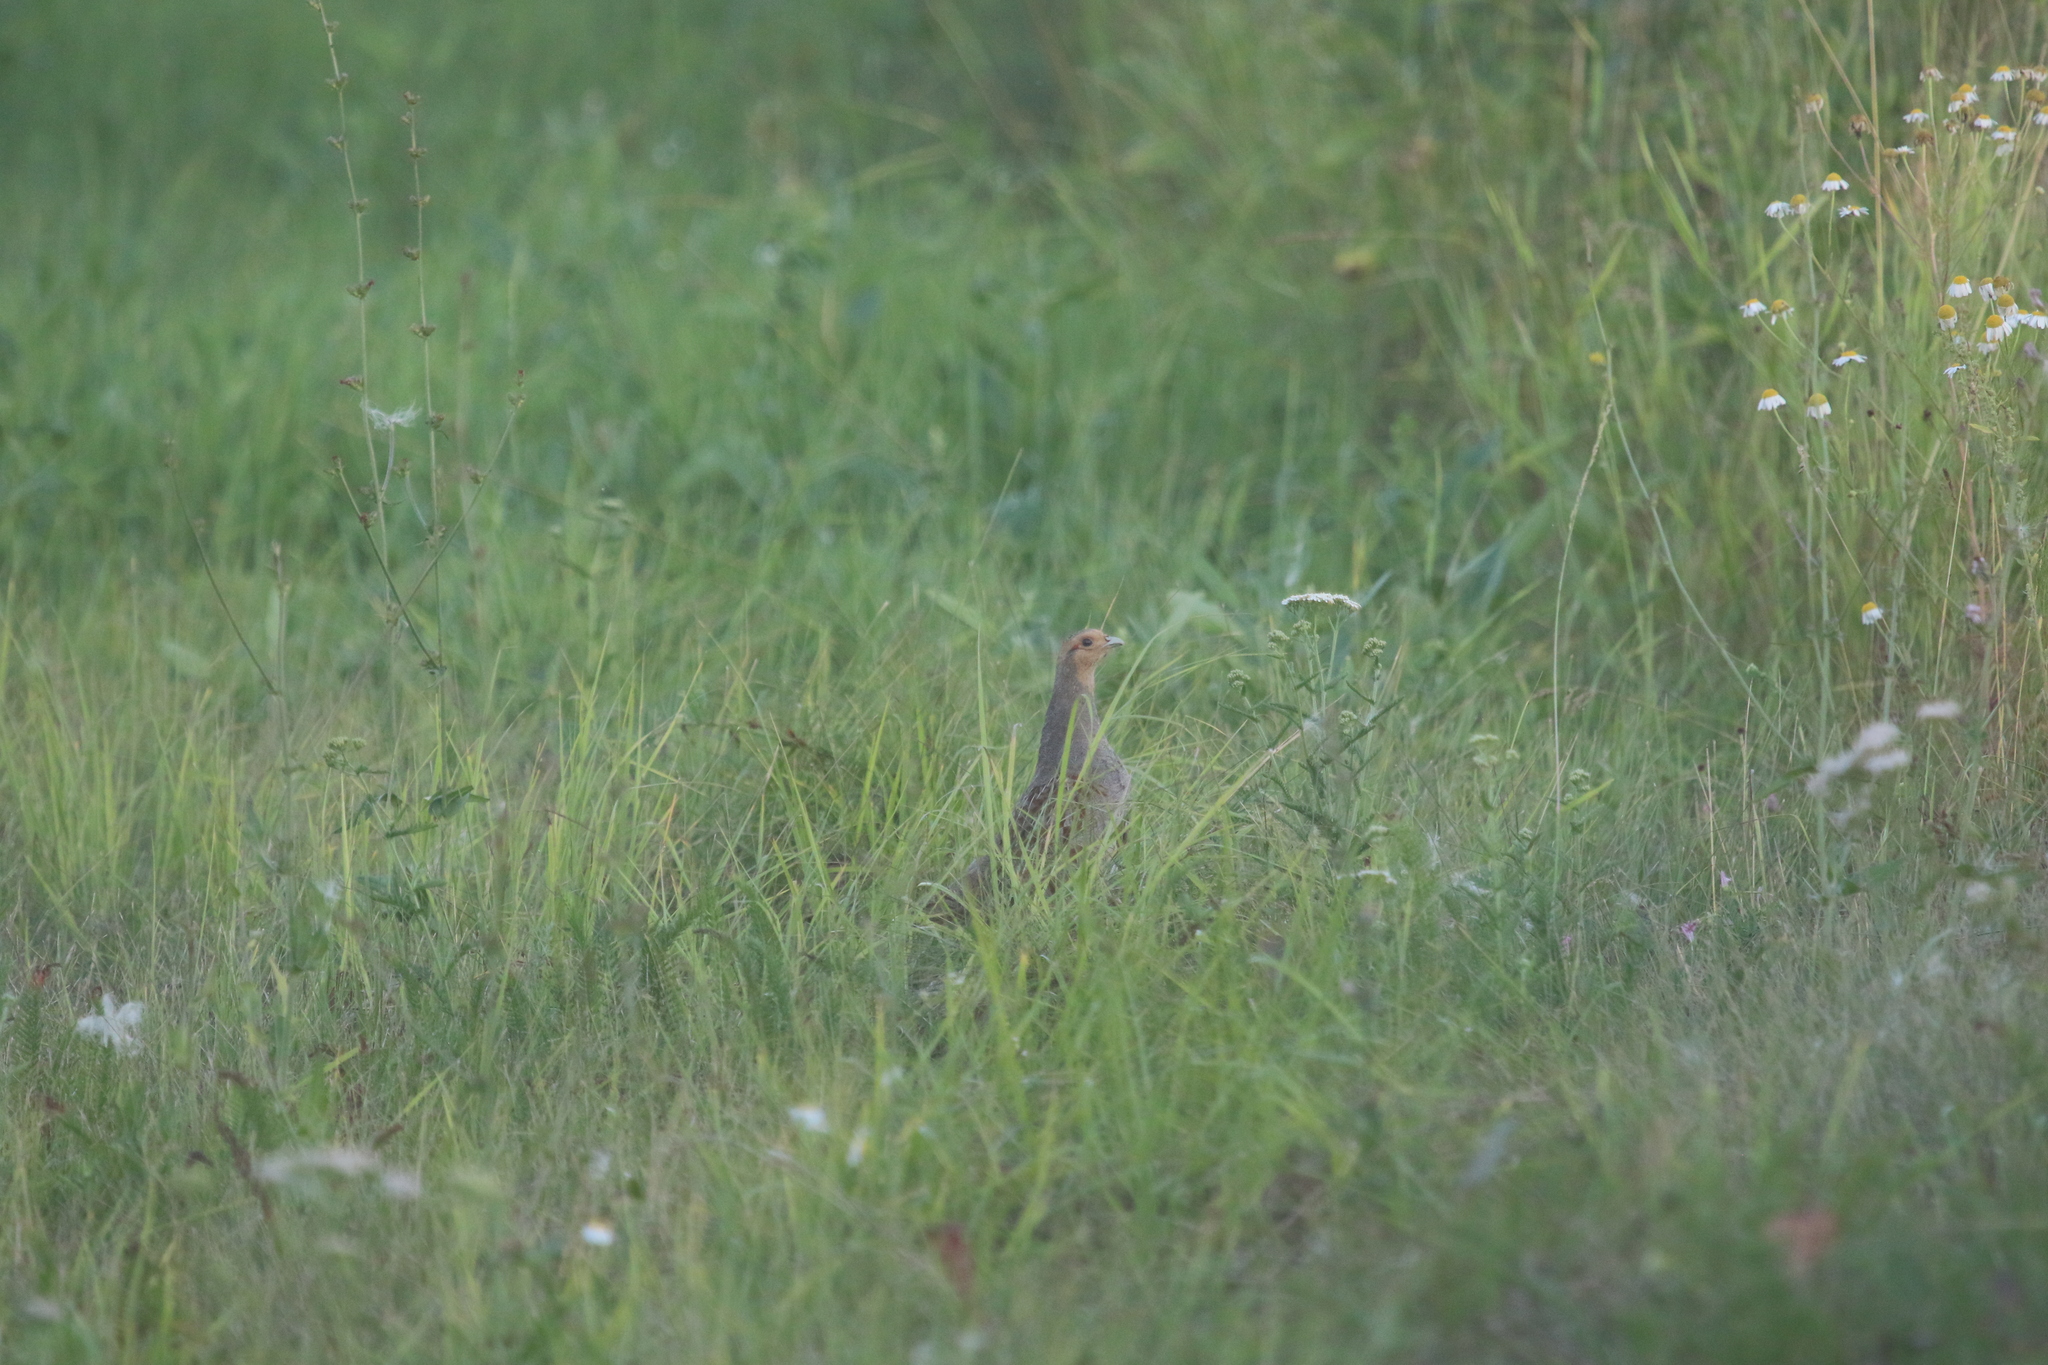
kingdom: Animalia
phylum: Chordata
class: Aves
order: Galliformes
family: Phasianidae
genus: Perdix
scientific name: Perdix perdix
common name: Grey partridge
